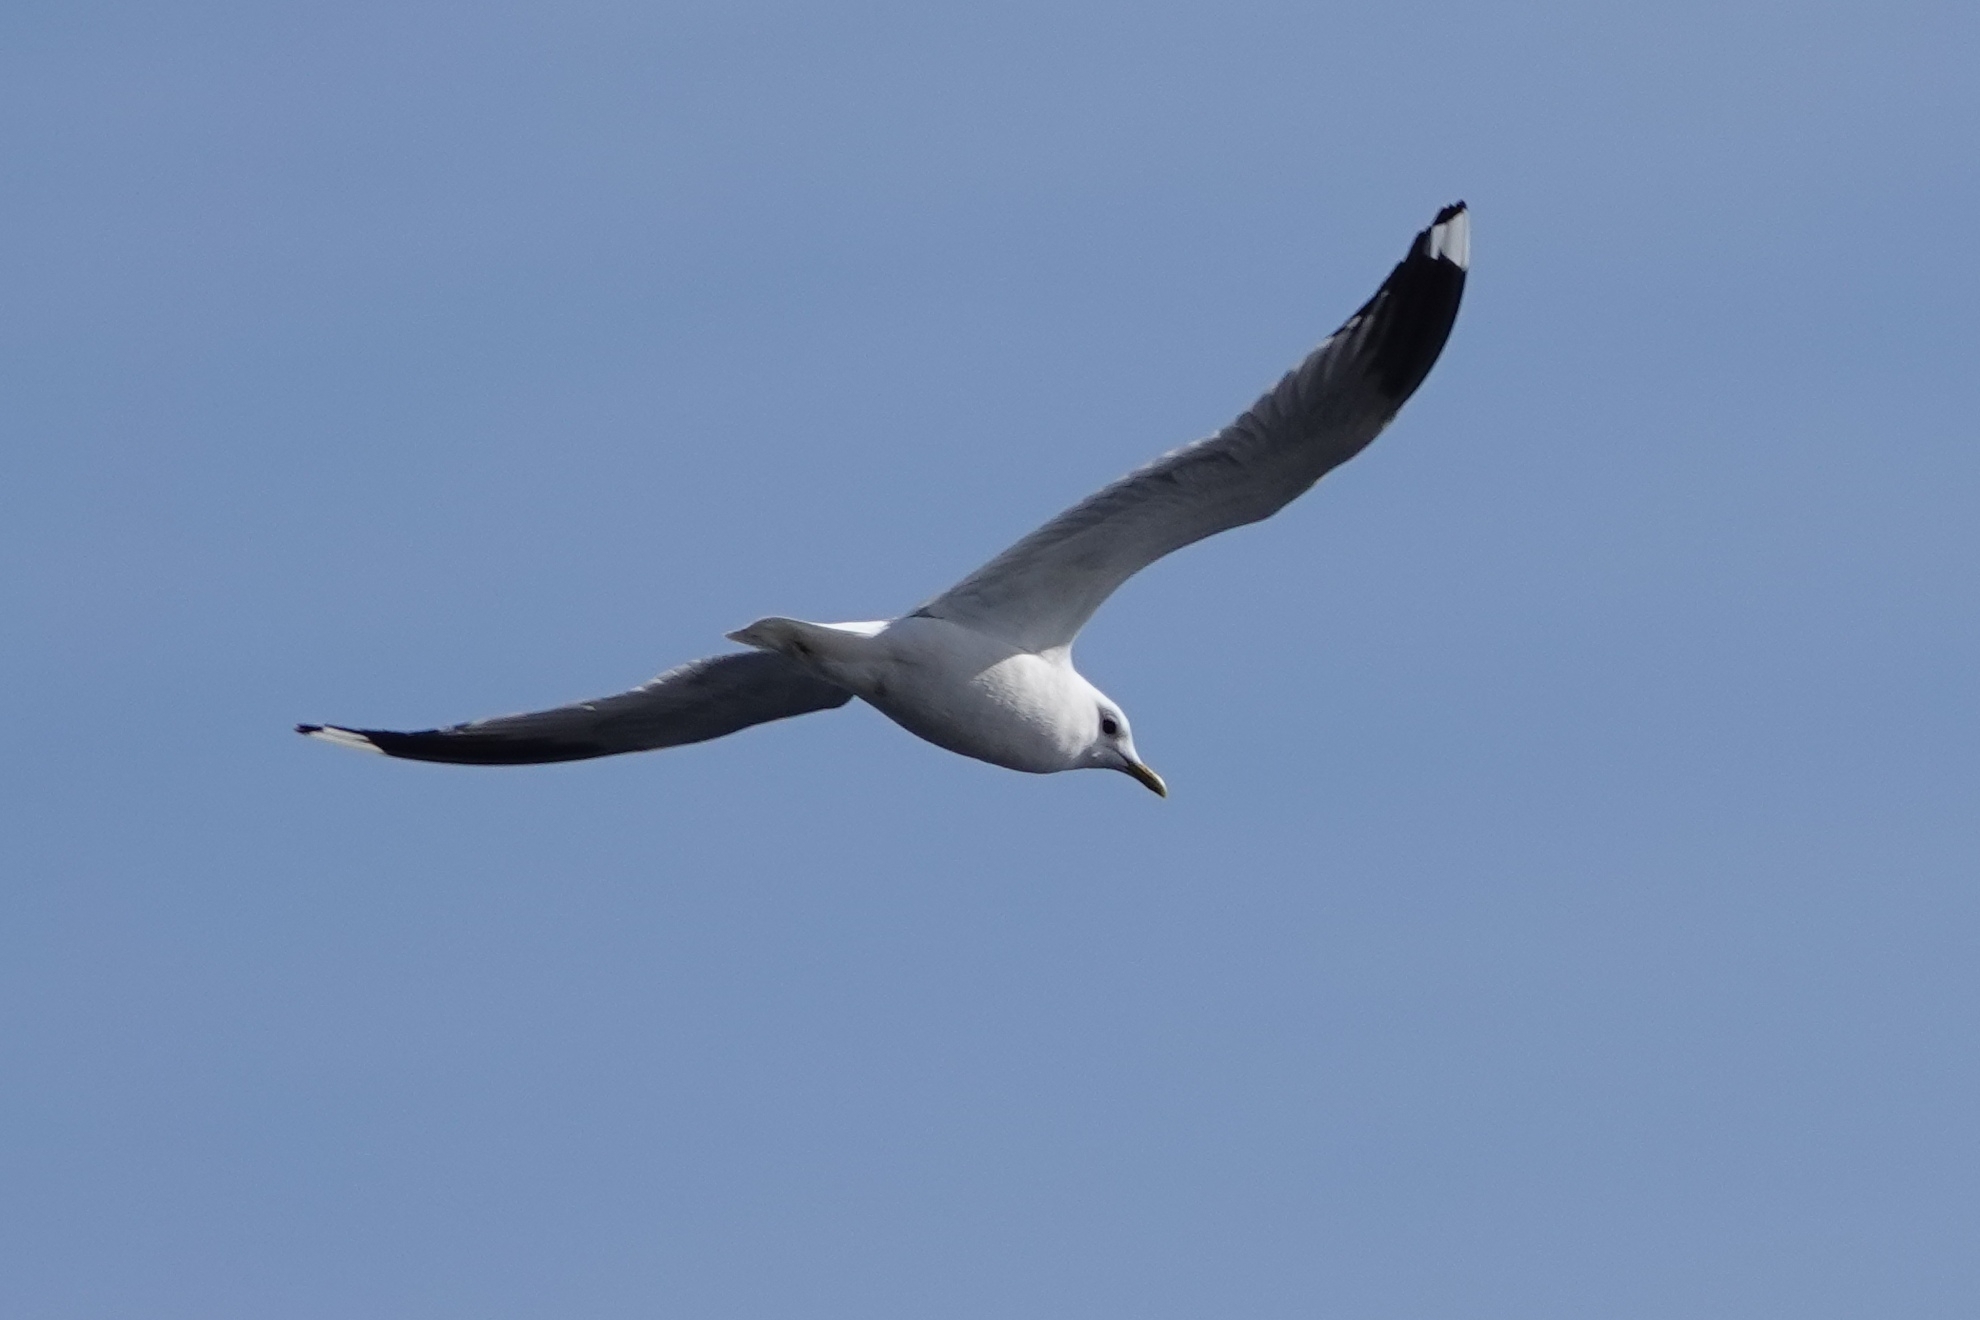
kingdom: Animalia
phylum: Chordata
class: Aves
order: Charadriiformes
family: Laridae
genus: Larus
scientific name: Larus canus
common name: Mew gull
